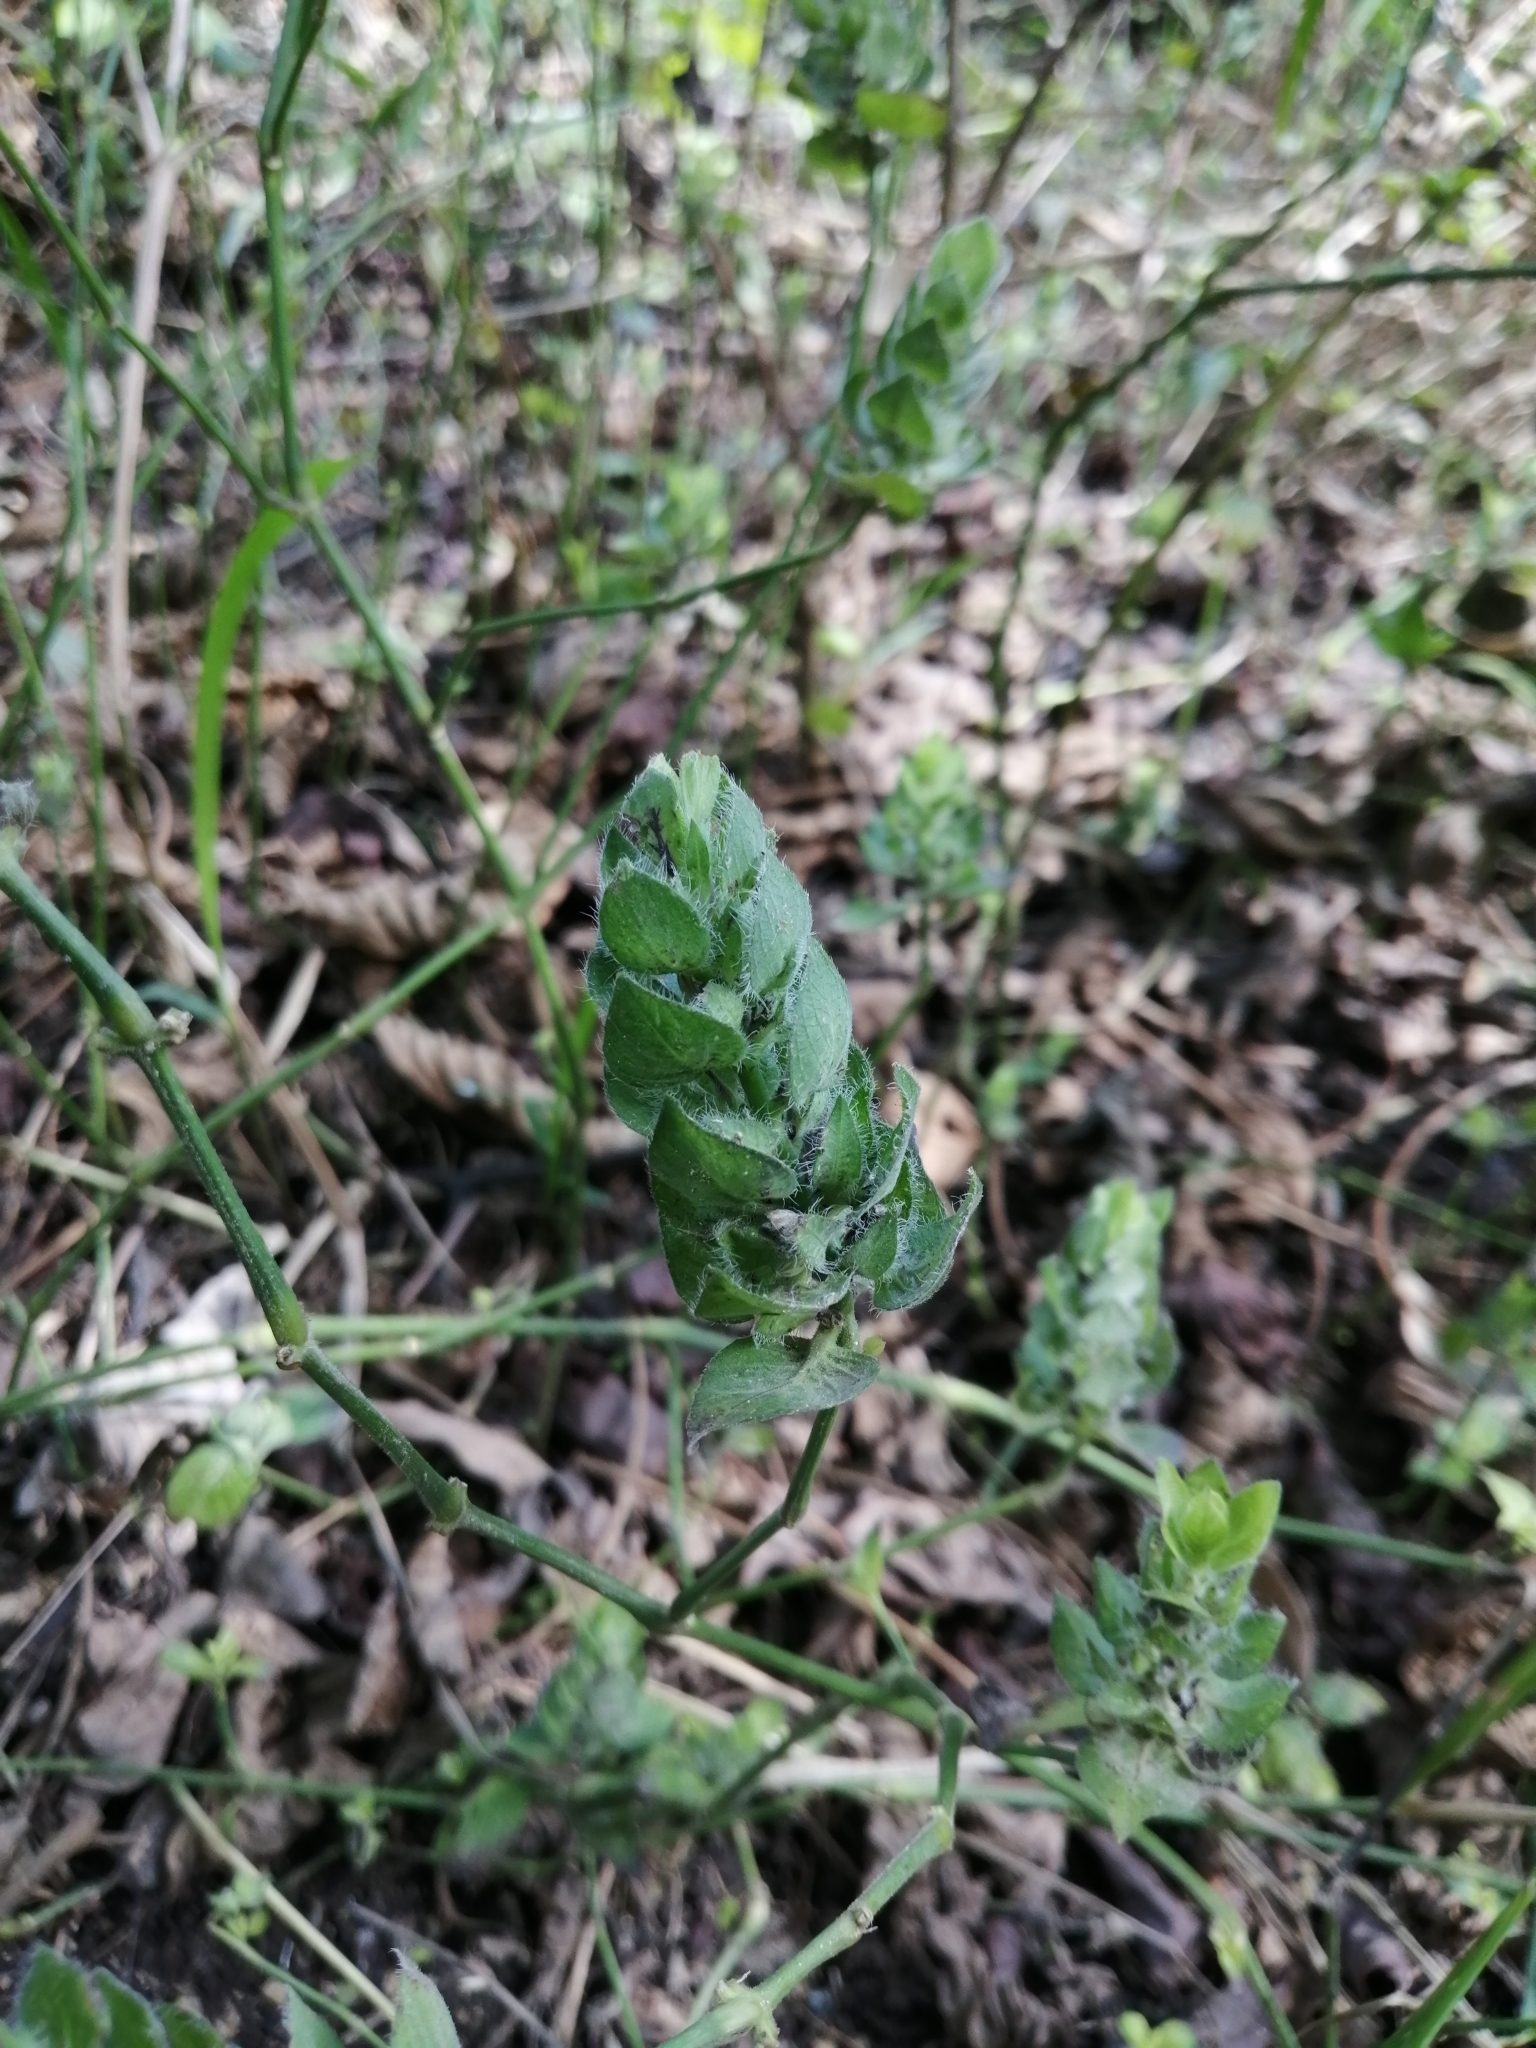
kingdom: Plantae
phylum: Tracheophyta
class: Magnoliopsida
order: Lamiales
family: Acanthaceae
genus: Ruellia
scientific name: Ruellia blechum
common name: Browne's blechum
